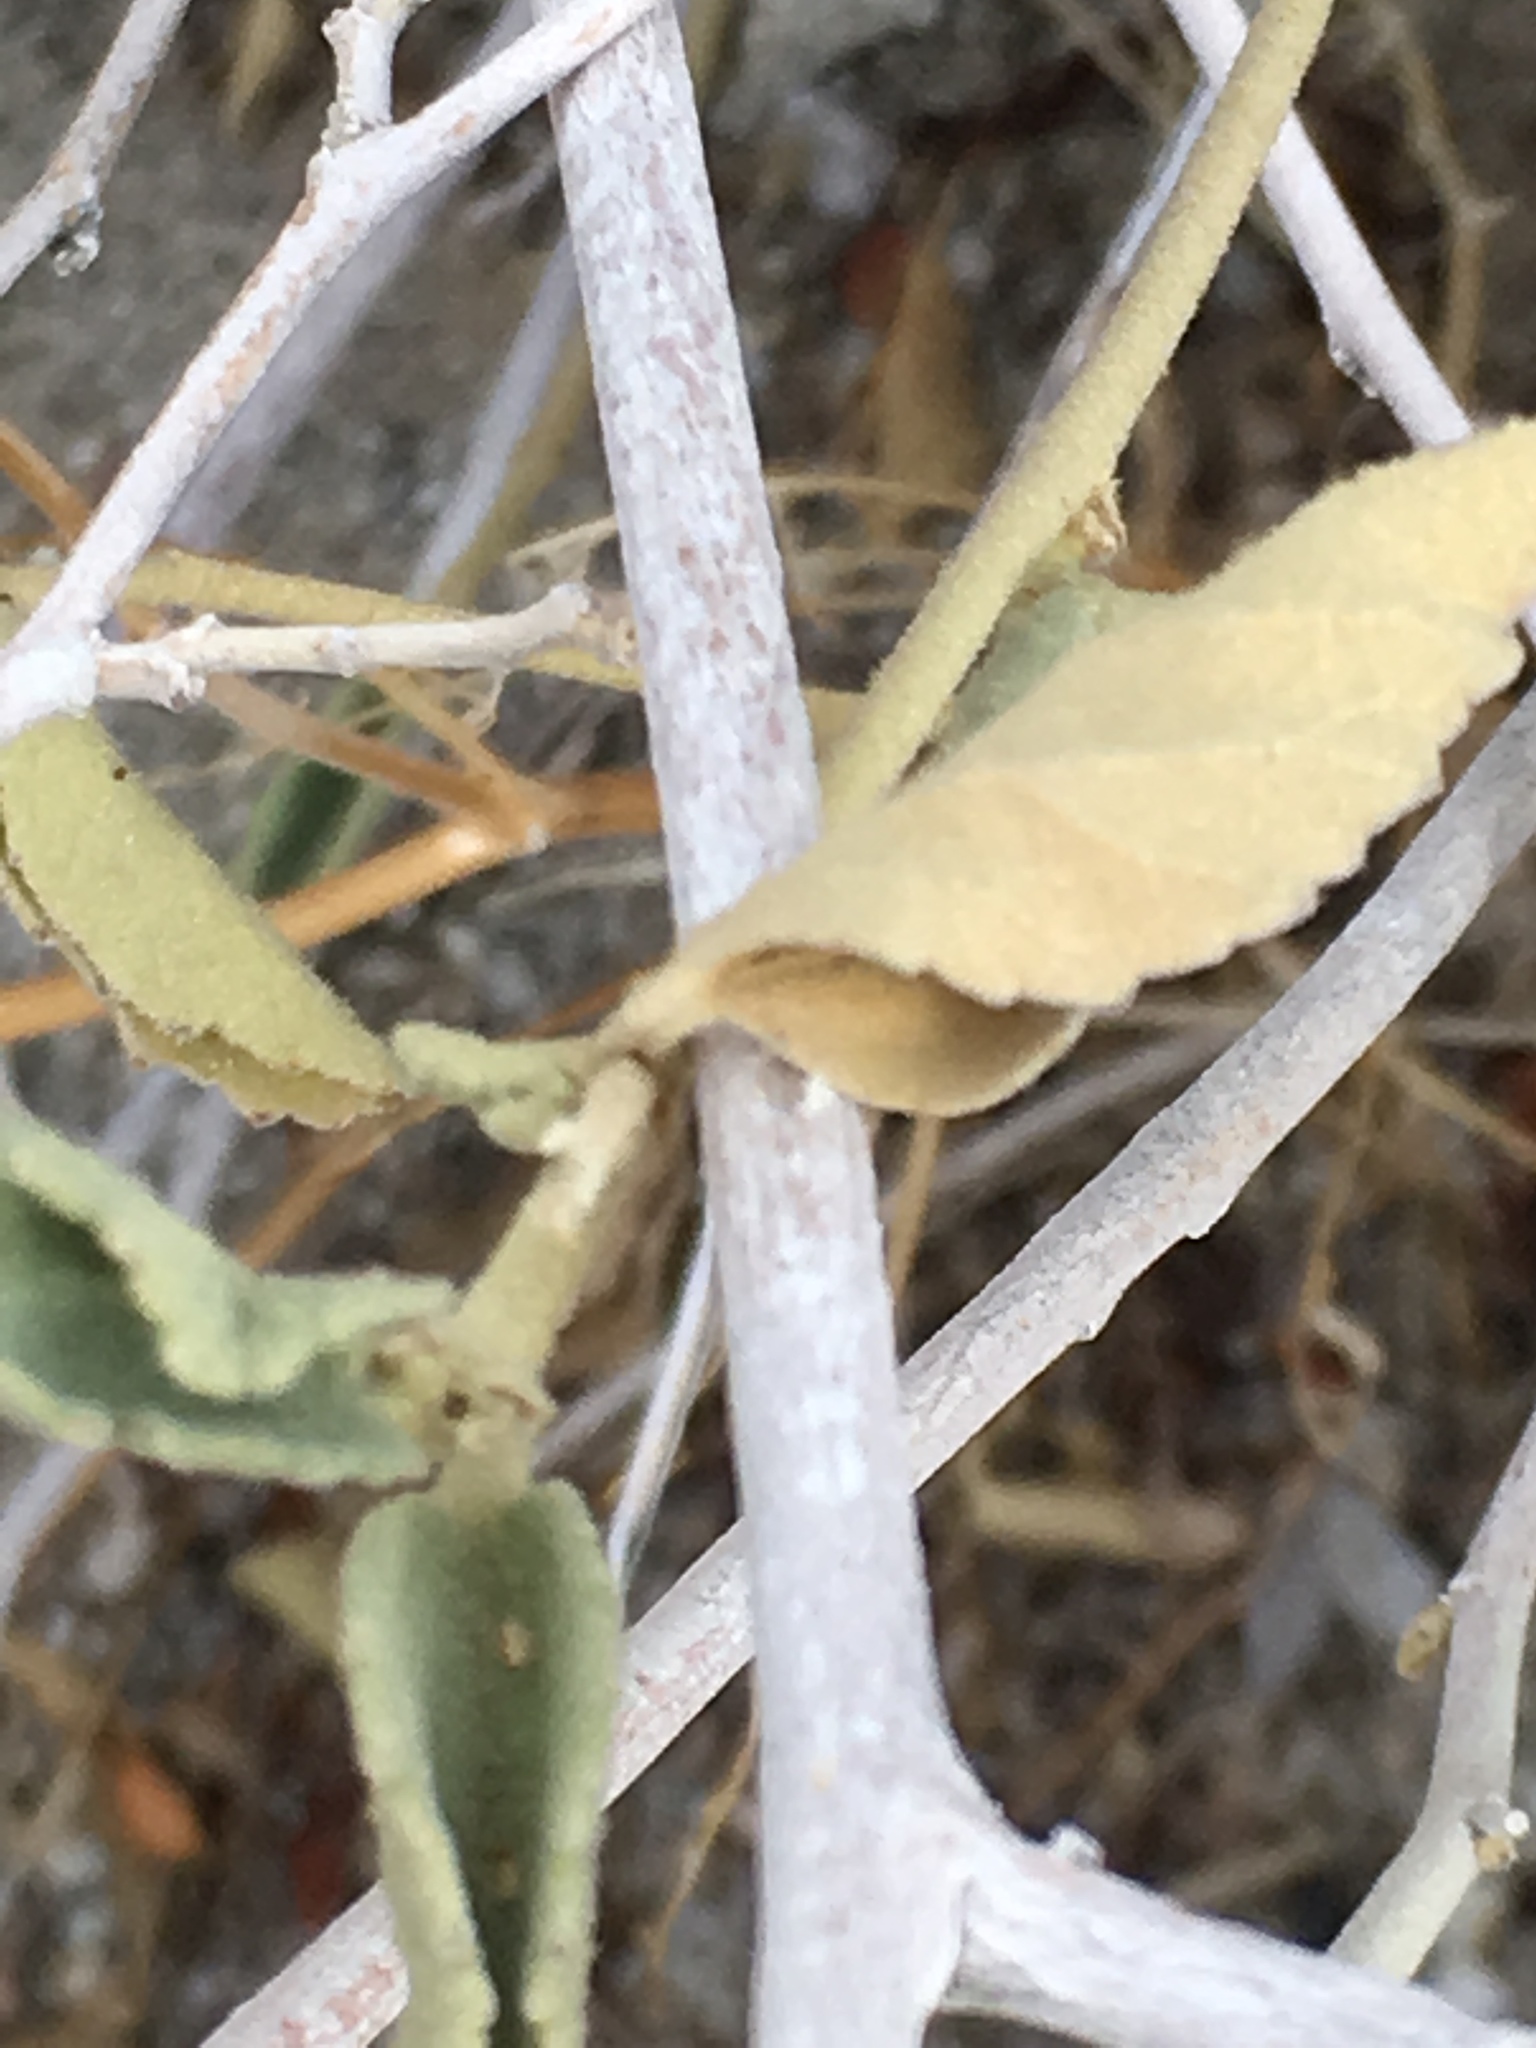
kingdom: Plantae
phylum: Tracheophyta
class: Magnoliopsida
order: Malvales
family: Malvaceae
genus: Hibiscus
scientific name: Hibiscus denudatus
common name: Paleface
